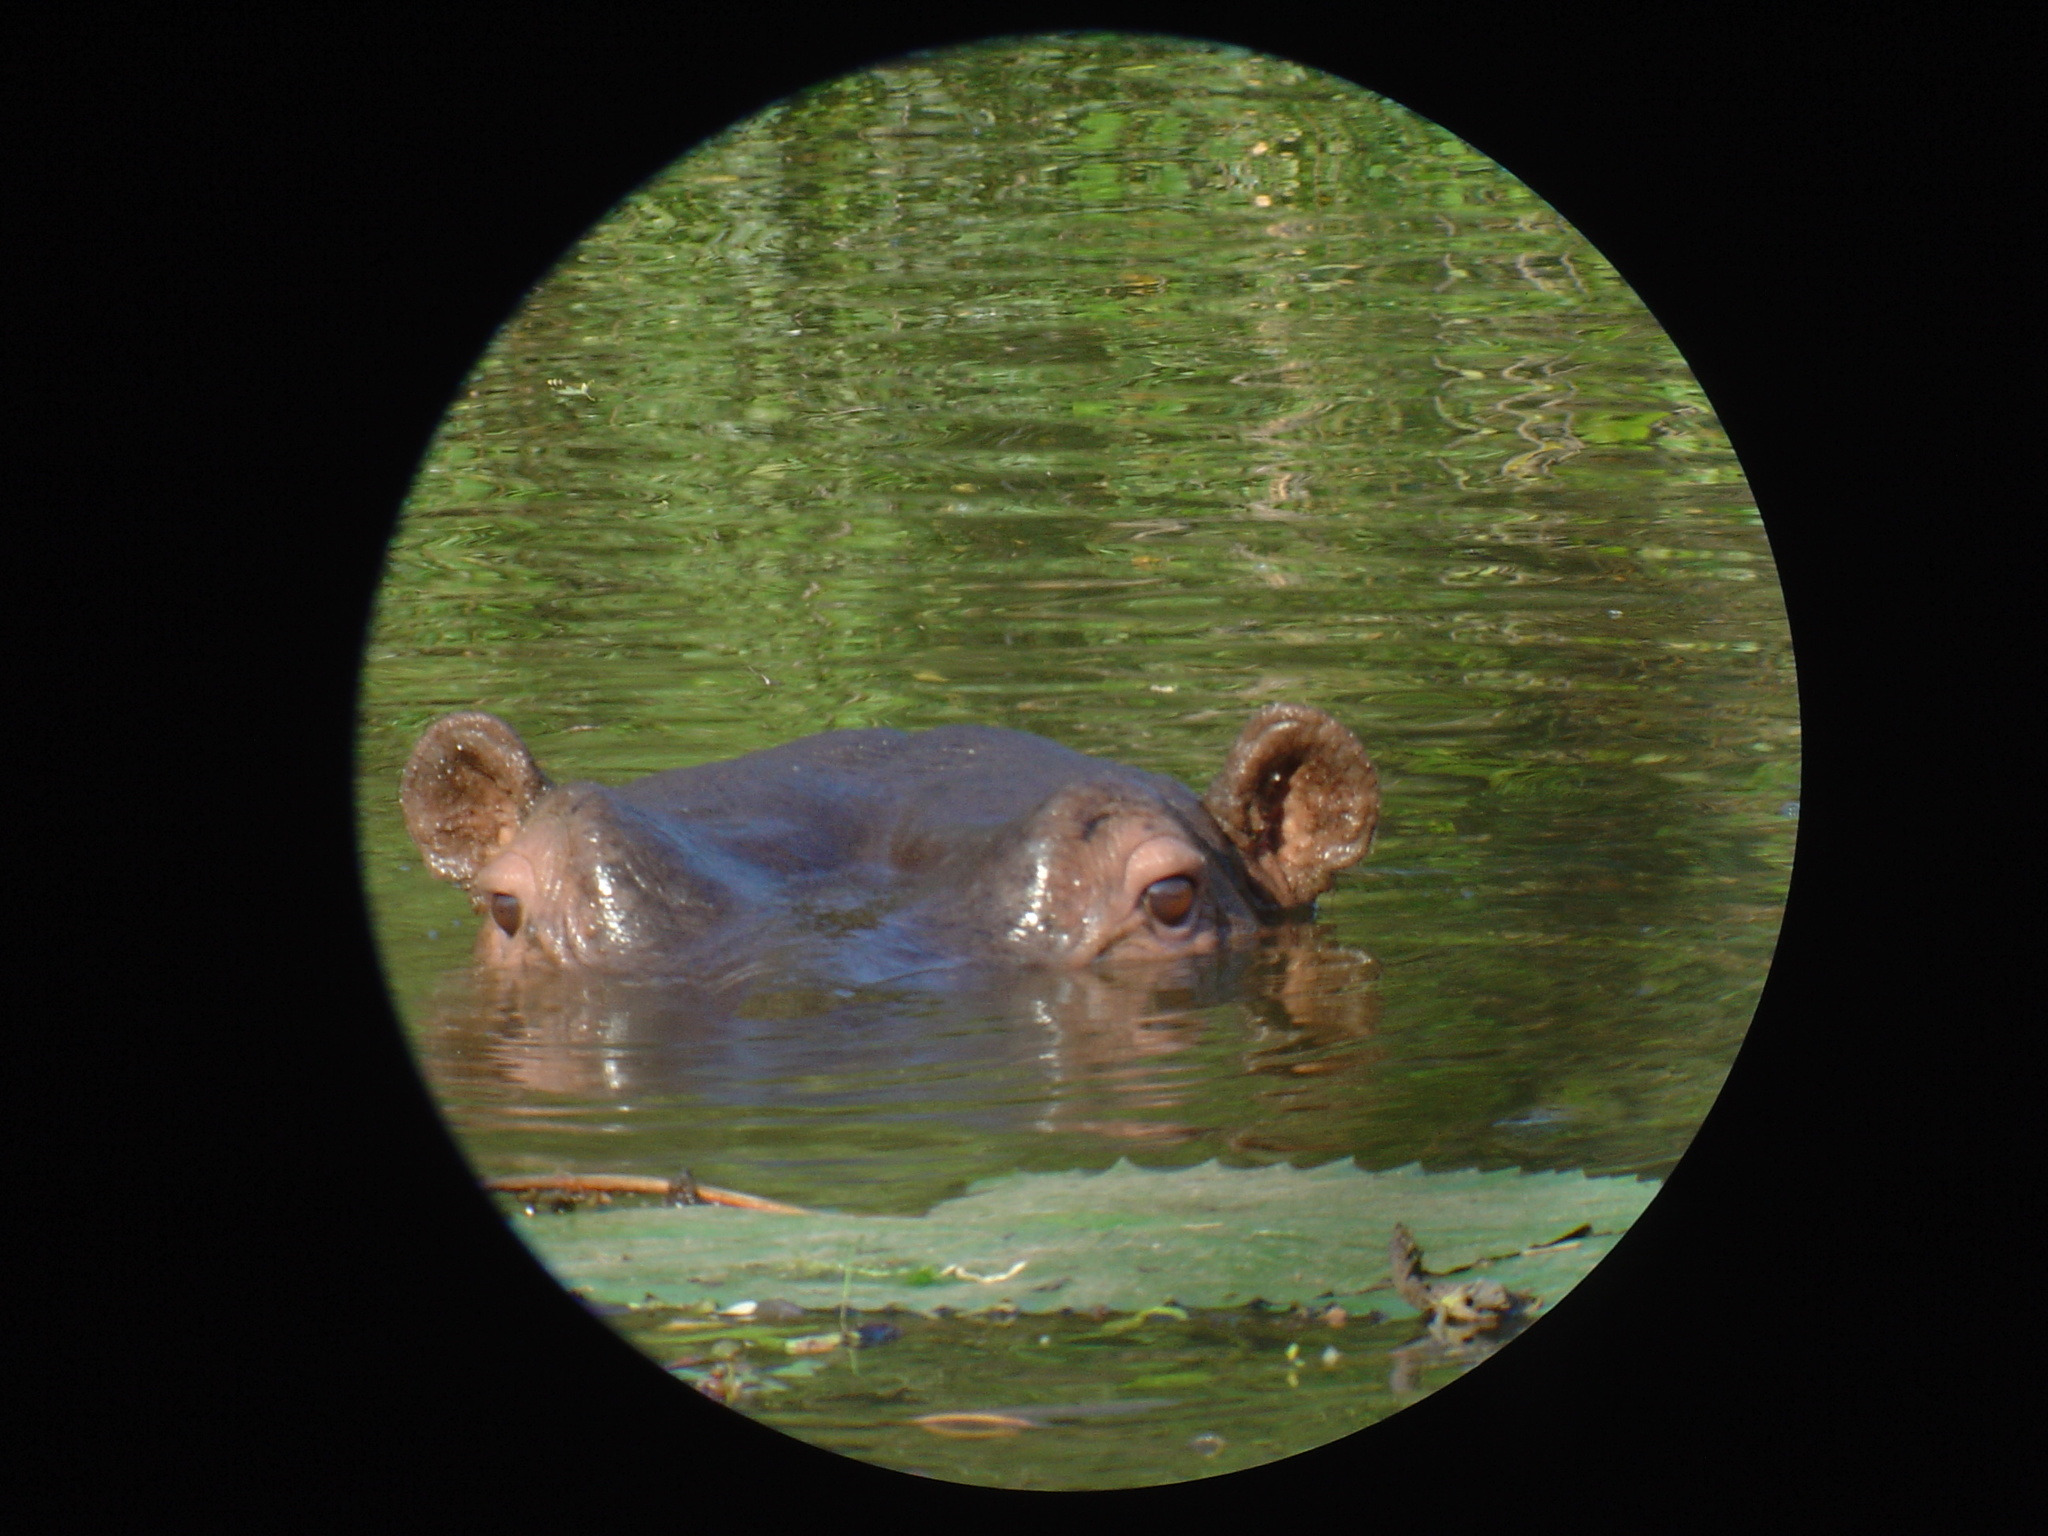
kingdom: Animalia
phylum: Chordata
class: Mammalia
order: Artiodactyla
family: Hippopotamidae
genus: Hippopotamus
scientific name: Hippopotamus amphibius
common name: Common hippopotamus
